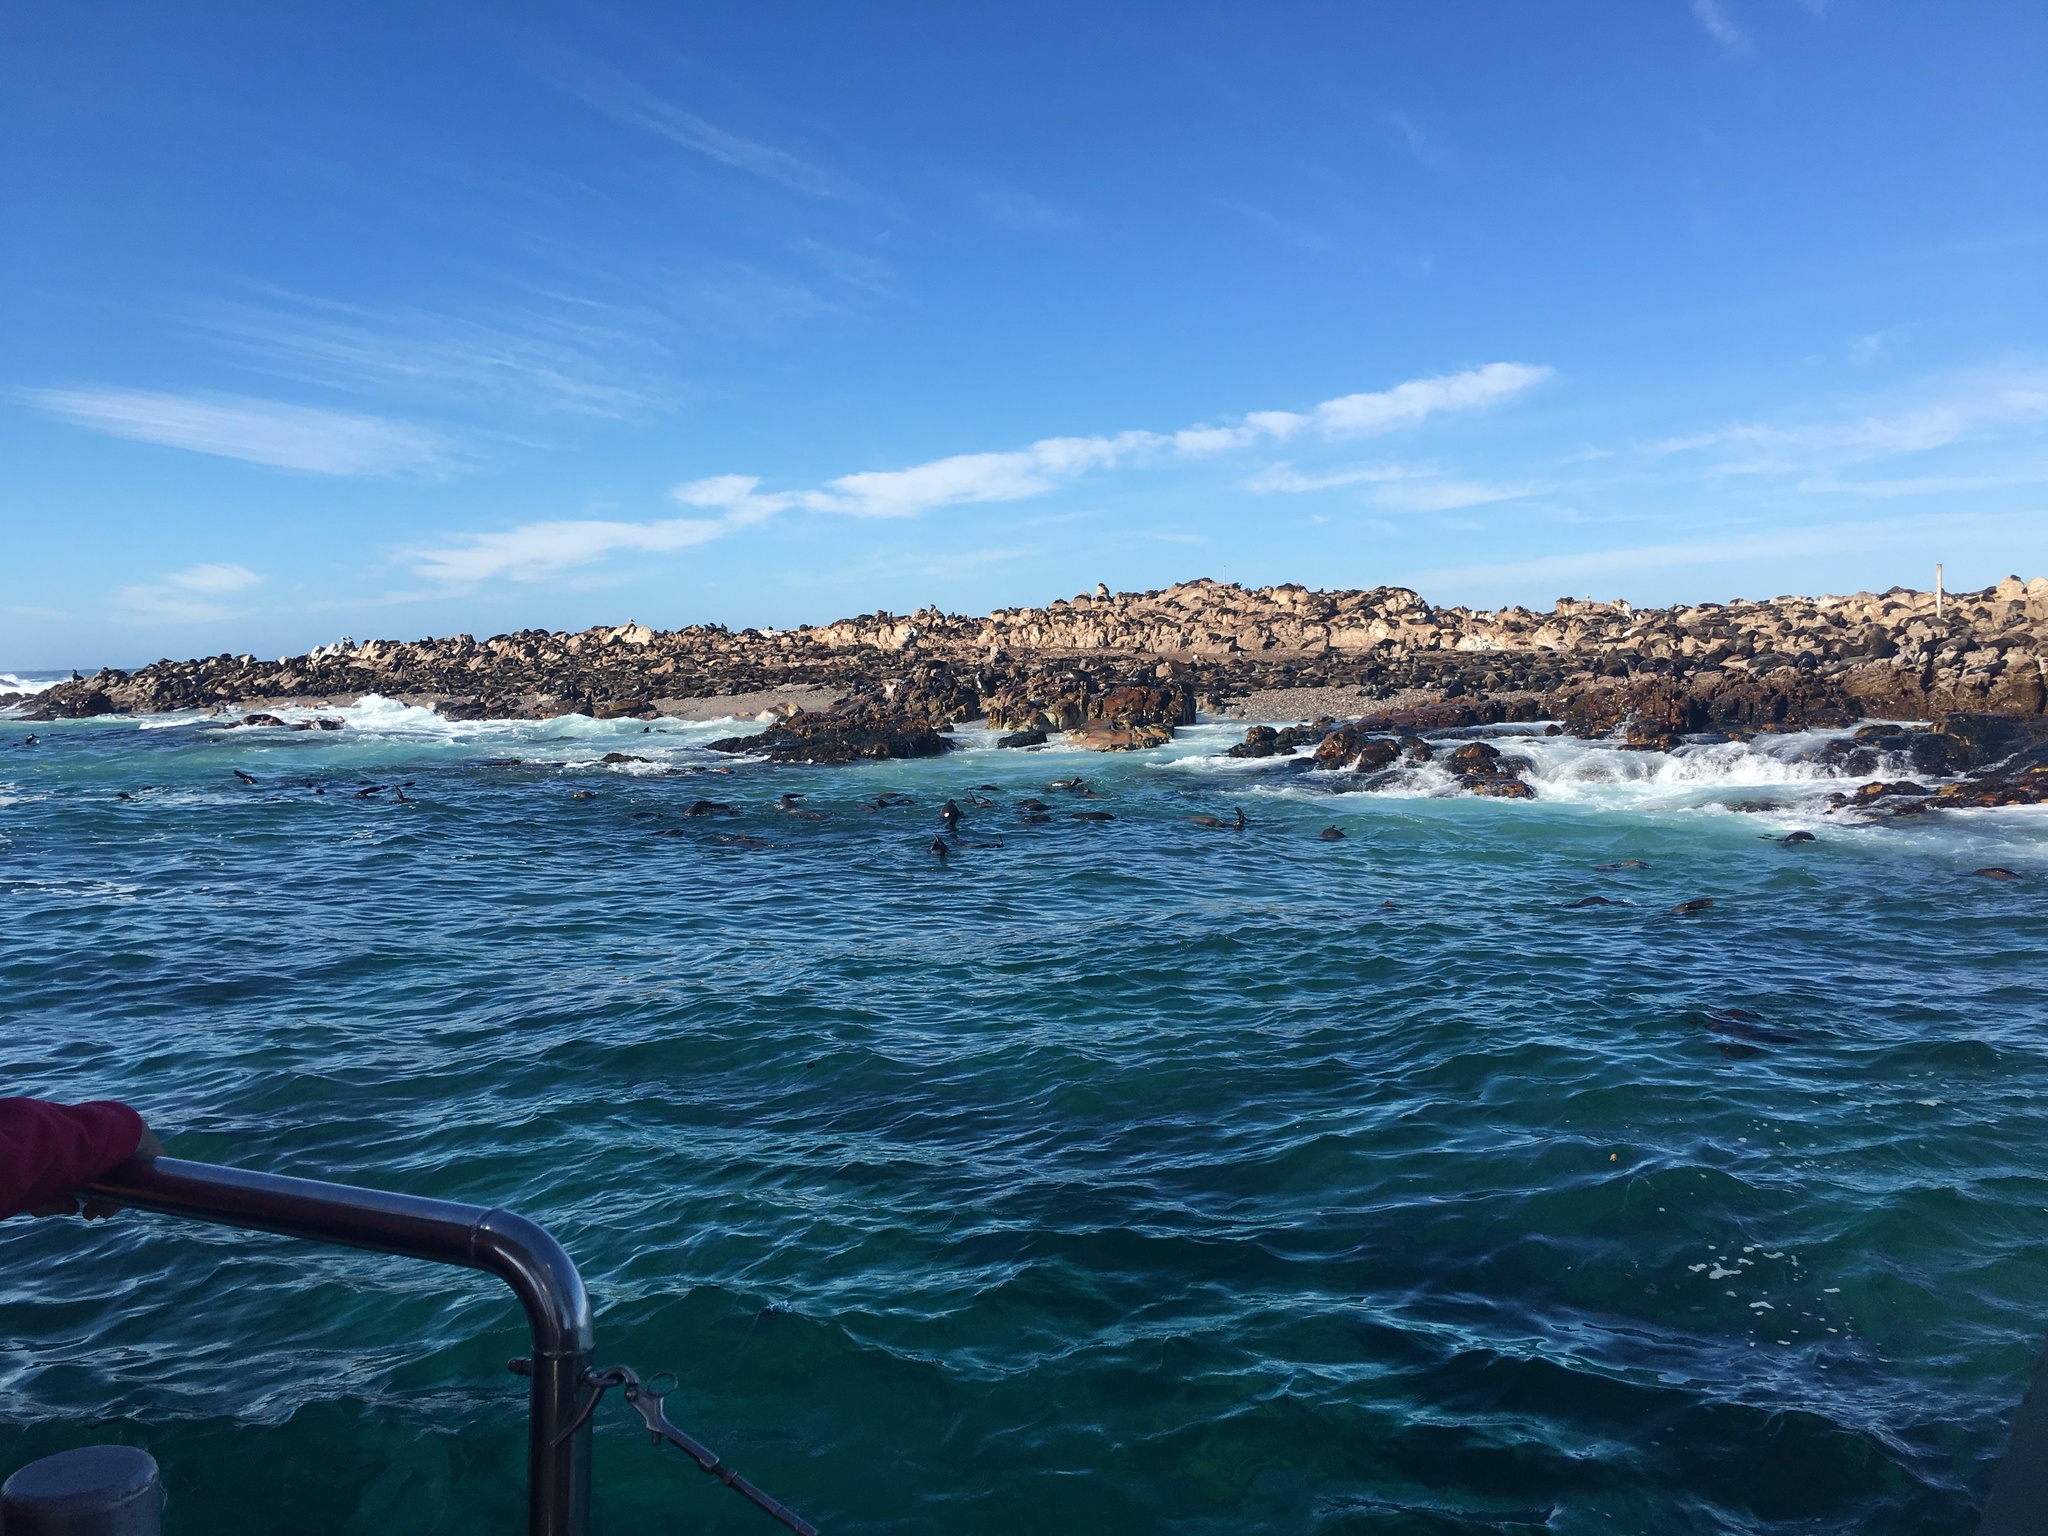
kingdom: Animalia
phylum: Chordata
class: Mammalia
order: Carnivora
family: Otariidae
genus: Arctocephalus
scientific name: Arctocephalus pusillus
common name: Brown fur seal
